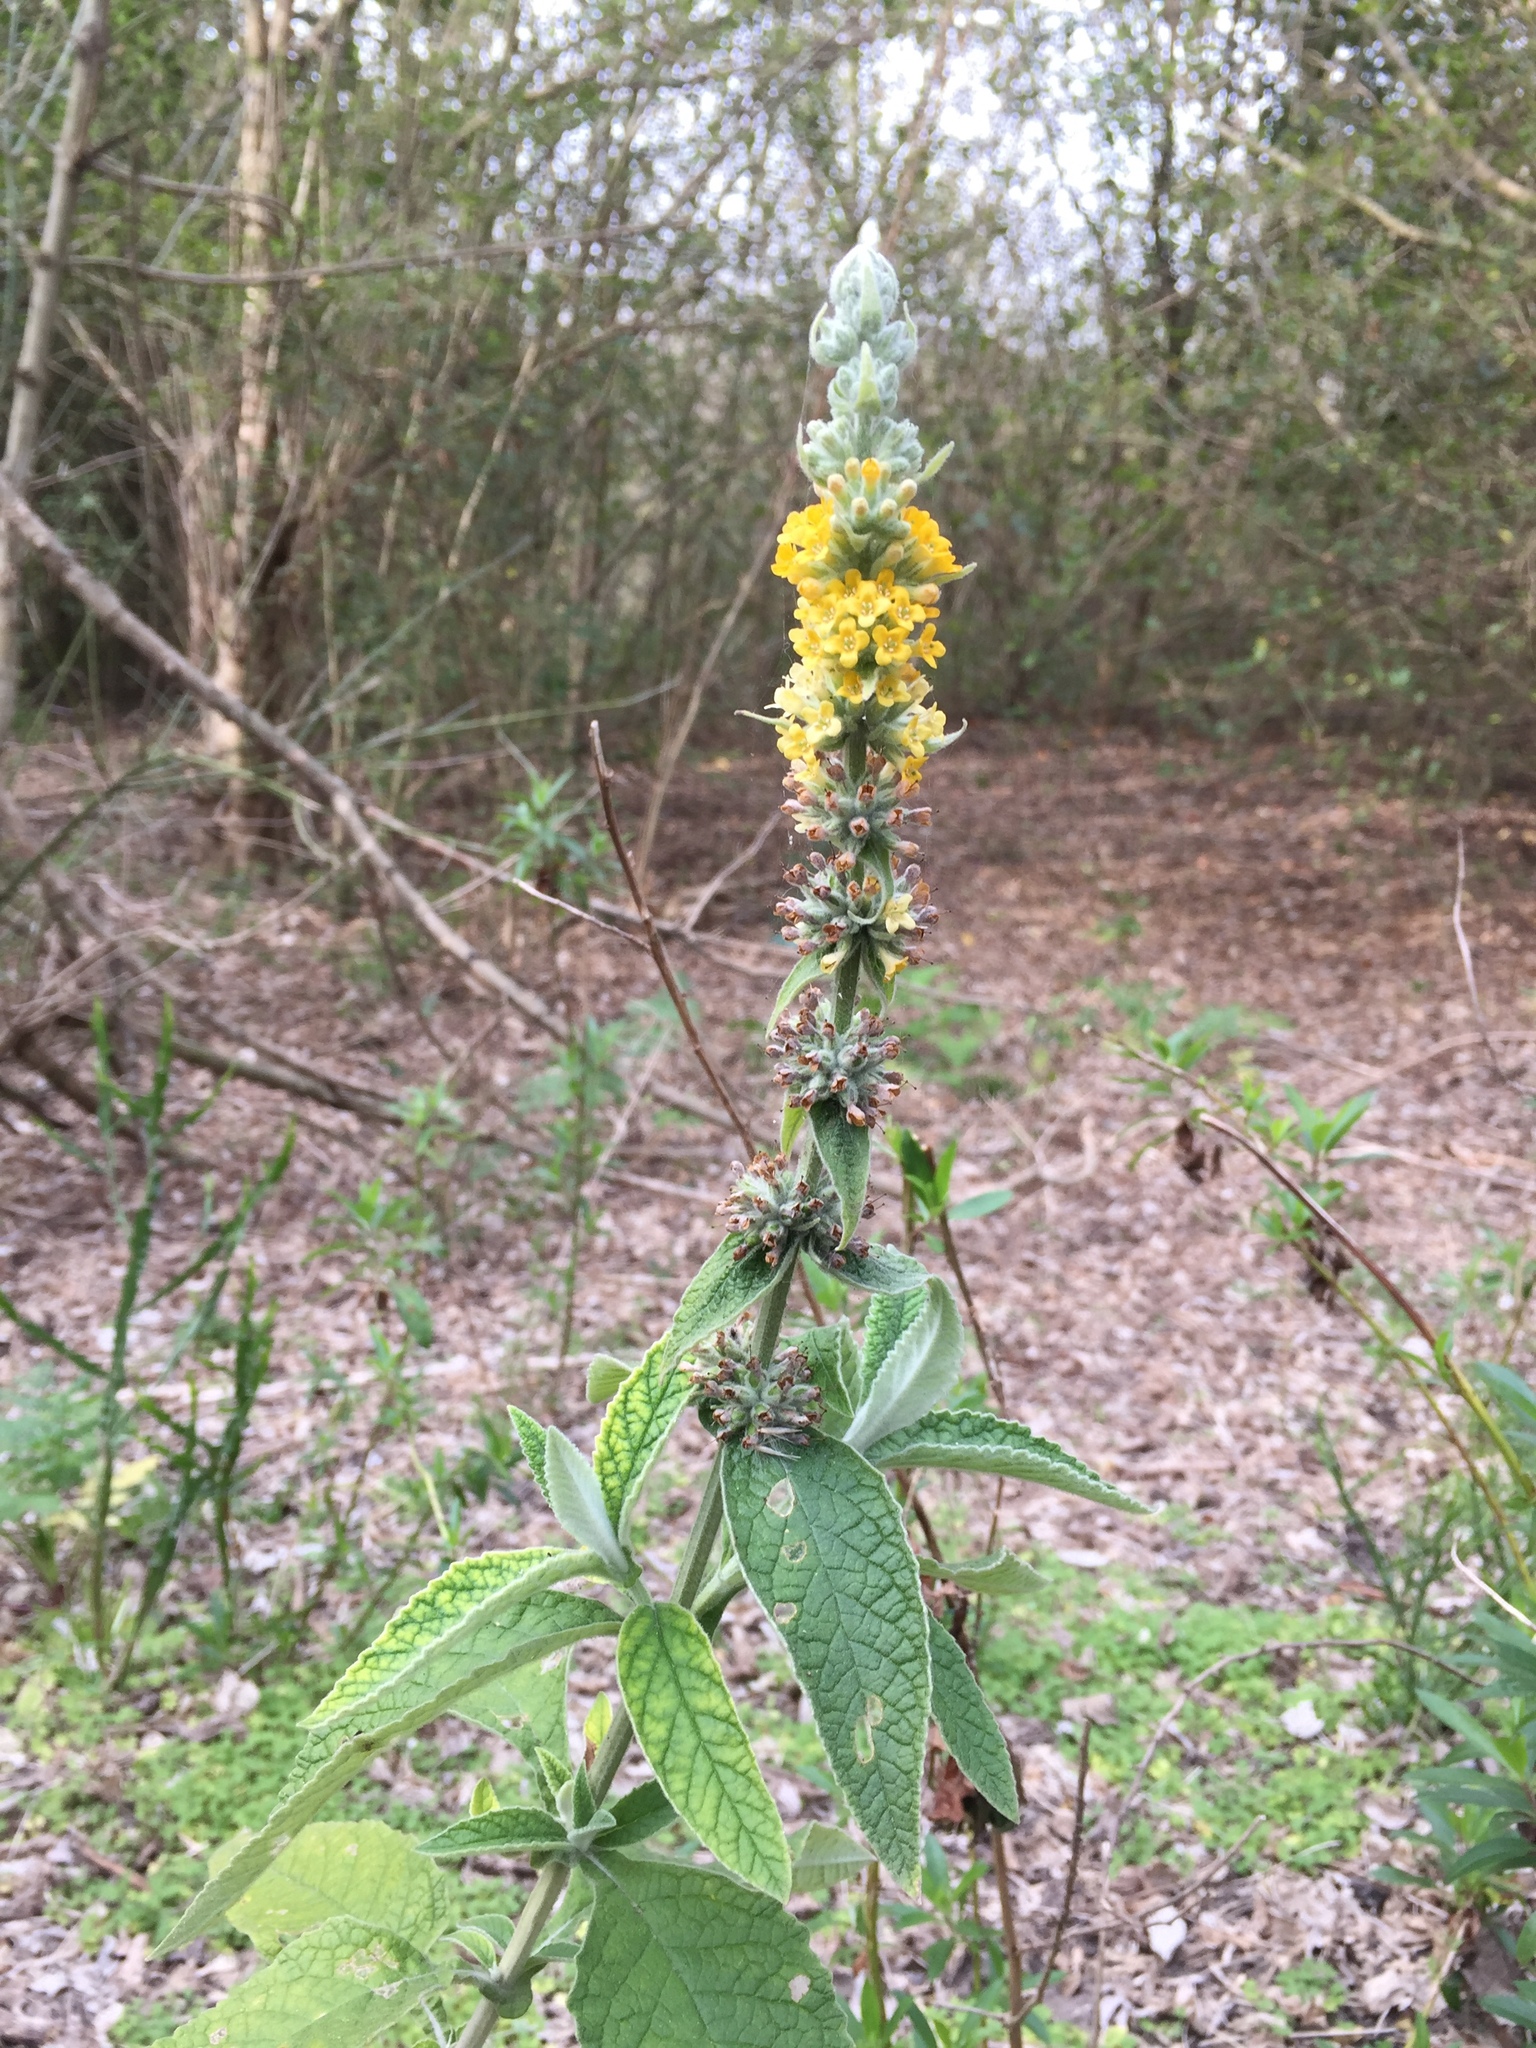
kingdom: Plantae
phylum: Tracheophyta
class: Magnoliopsida
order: Lamiales
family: Scrophulariaceae
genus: Buddleja
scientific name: Buddleja stachyoides
